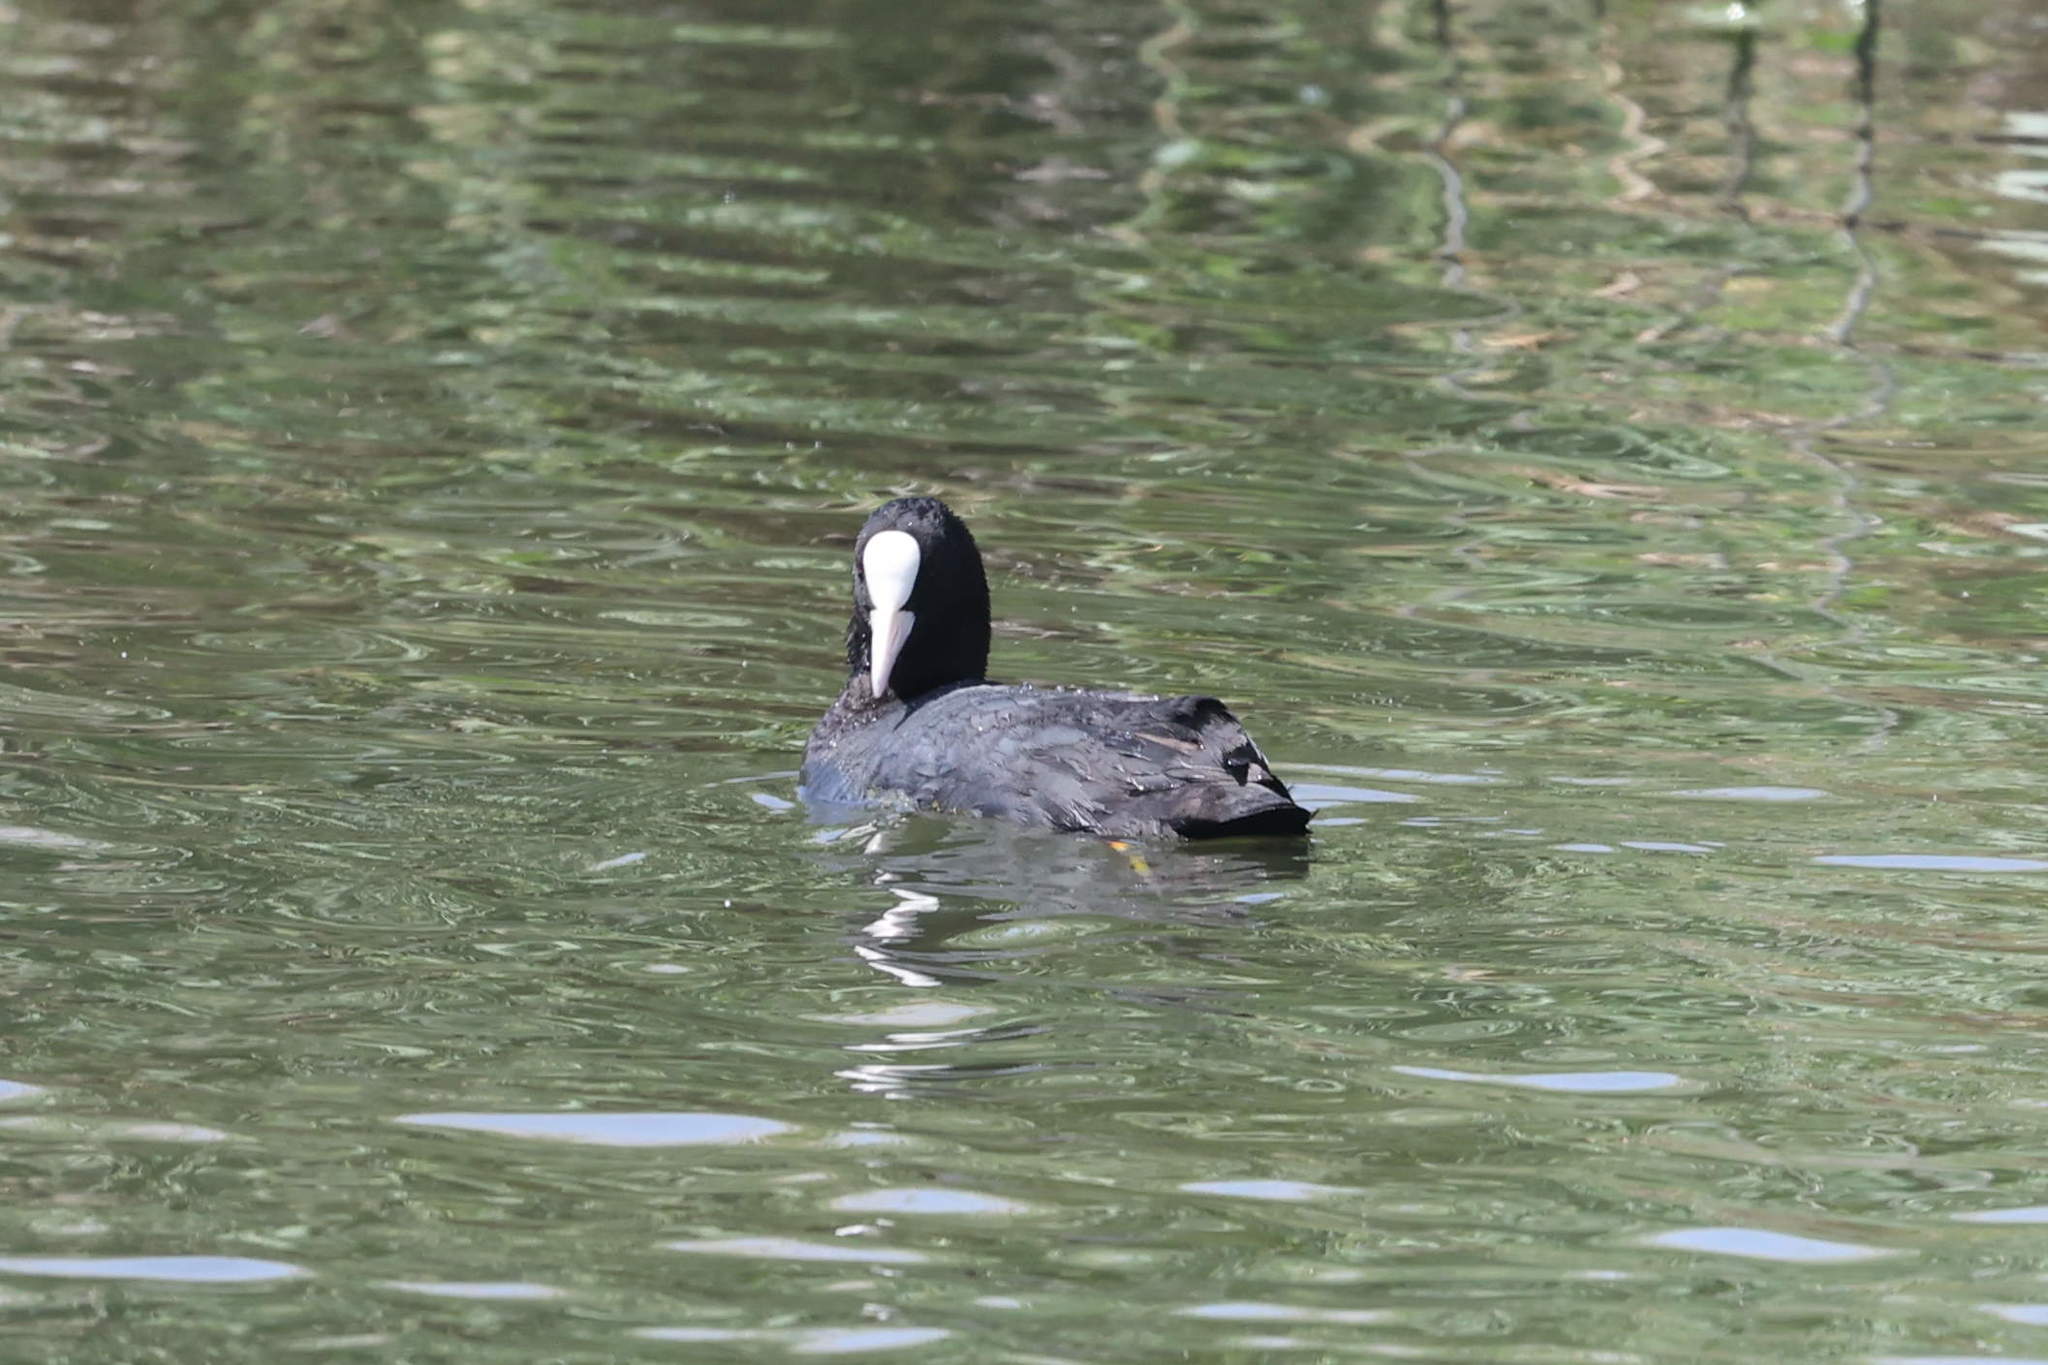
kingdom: Animalia
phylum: Chordata
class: Aves
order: Gruiformes
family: Rallidae
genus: Fulica
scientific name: Fulica atra
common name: Eurasian coot
